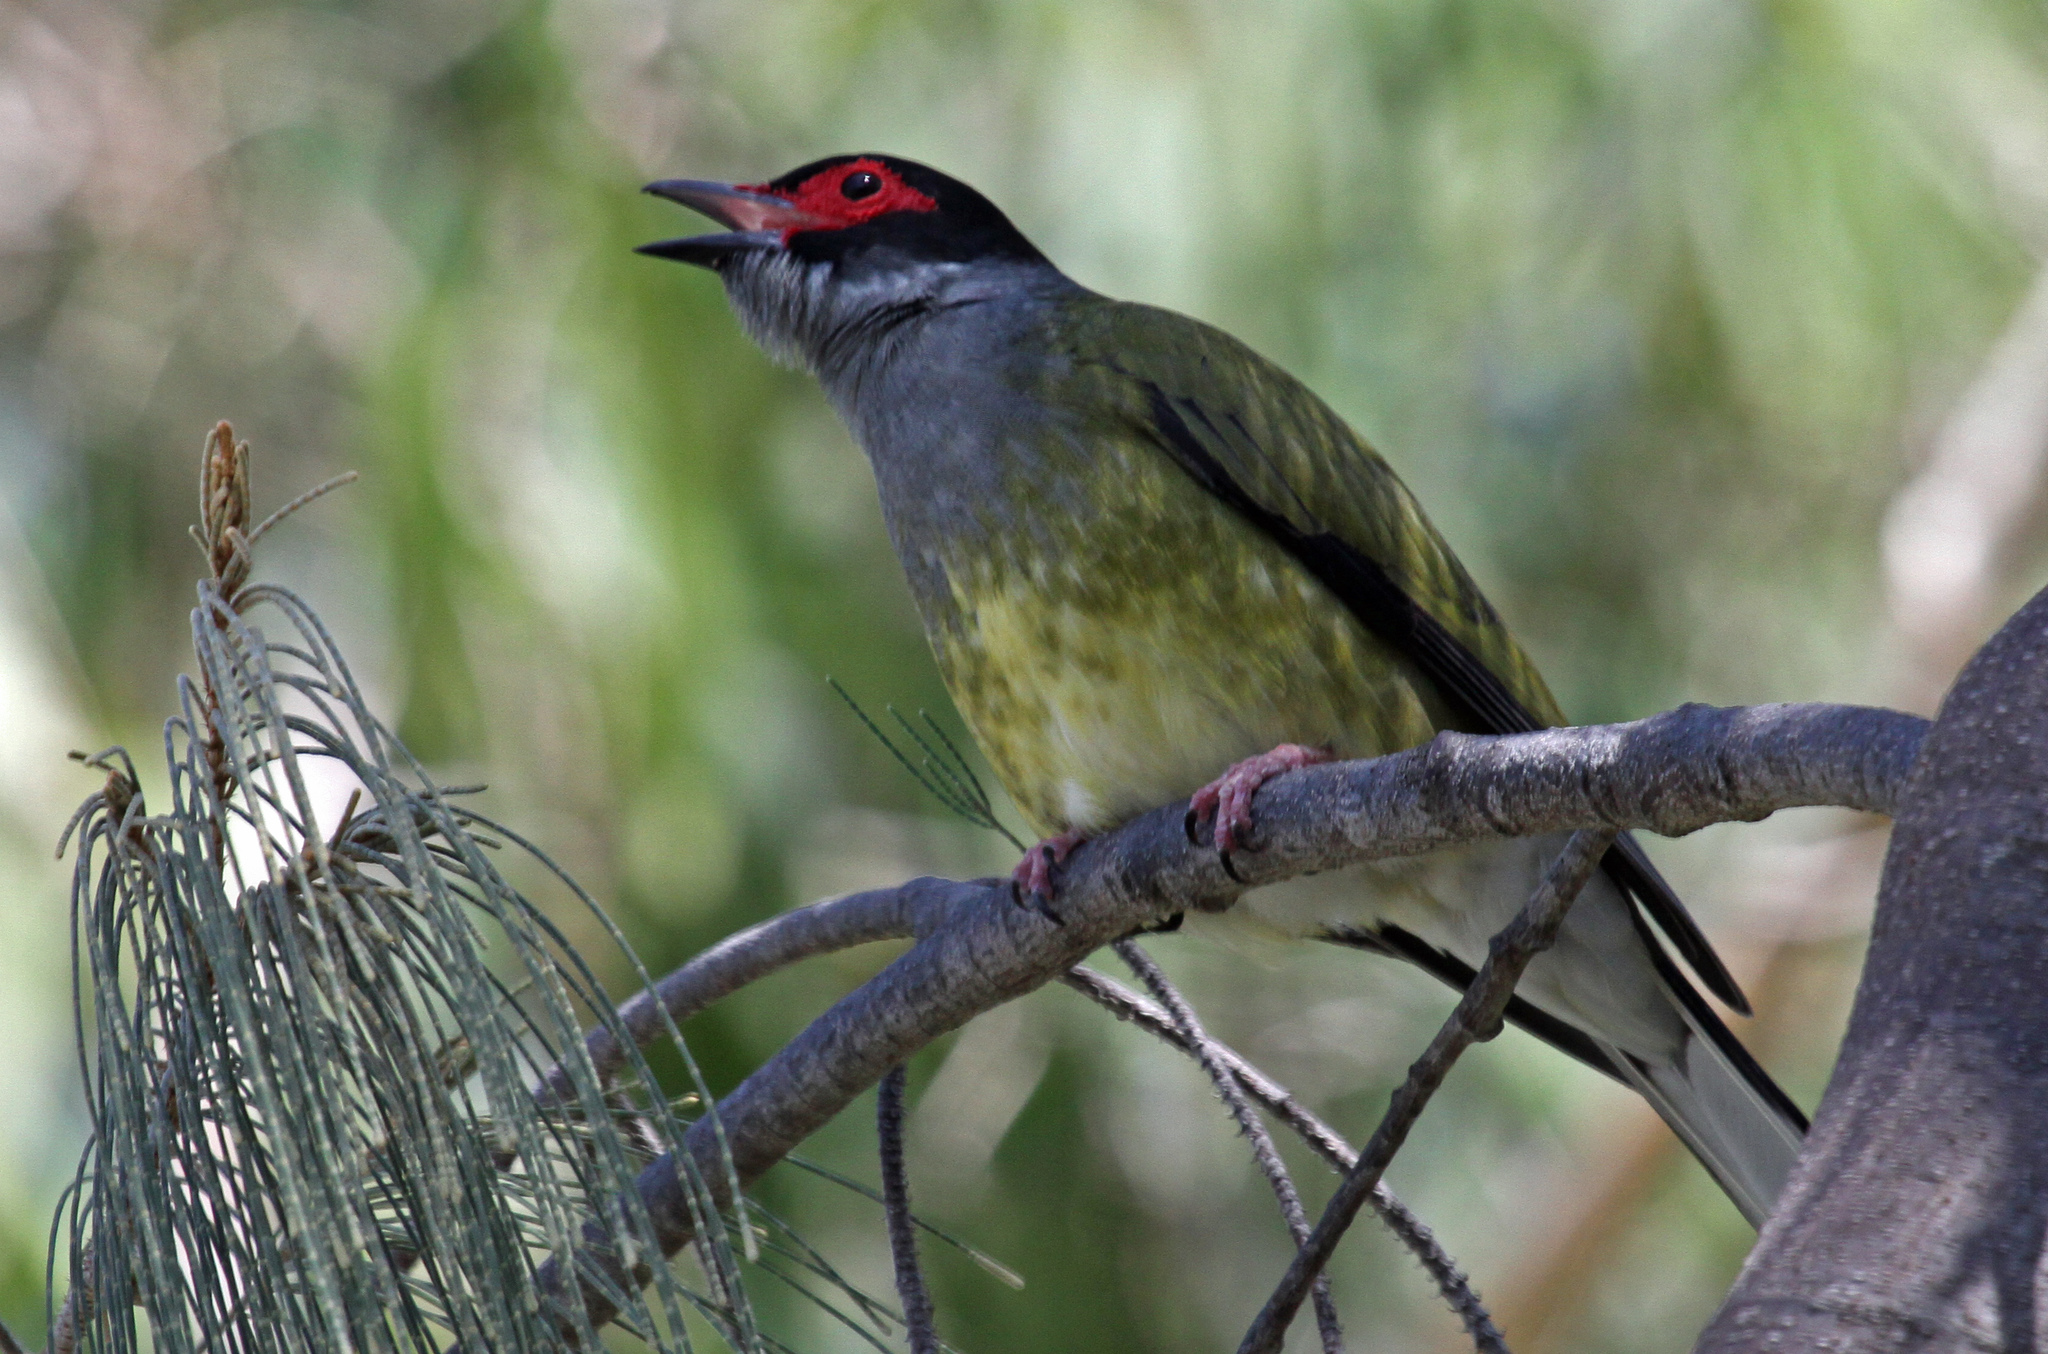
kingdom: Animalia
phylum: Chordata
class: Aves
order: Passeriformes
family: Oriolidae
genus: Sphecotheres
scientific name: Sphecotheres vieilloti
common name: Australasian figbird
